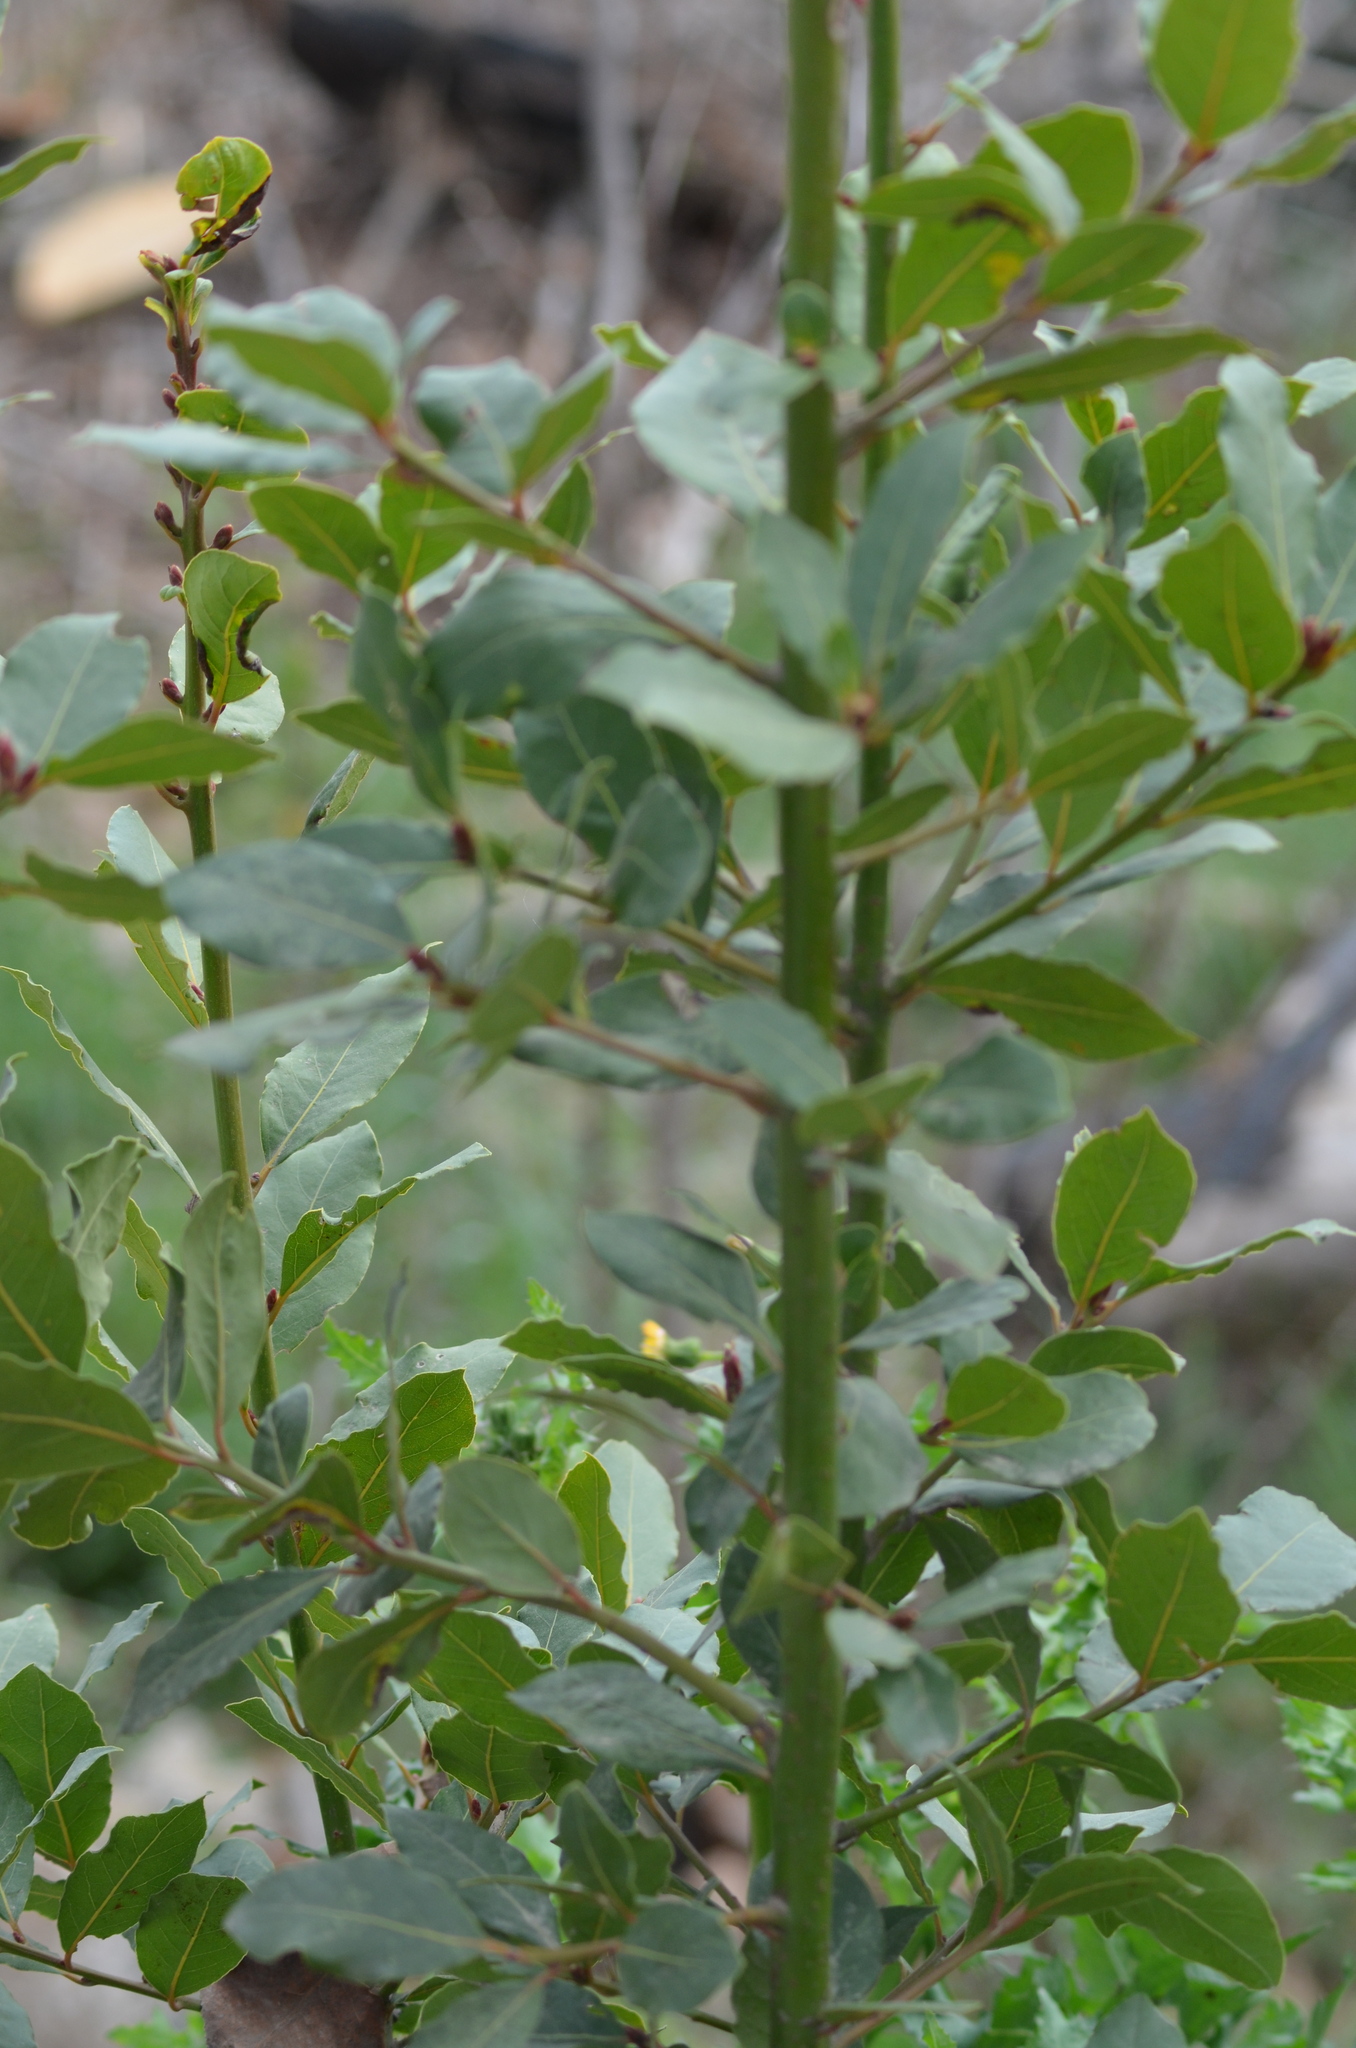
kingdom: Plantae
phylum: Tracheophyta
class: Magnoliopsida
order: Laurales
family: Lauraceae
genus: Laurus
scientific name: Laurus nobilis
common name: Bay
